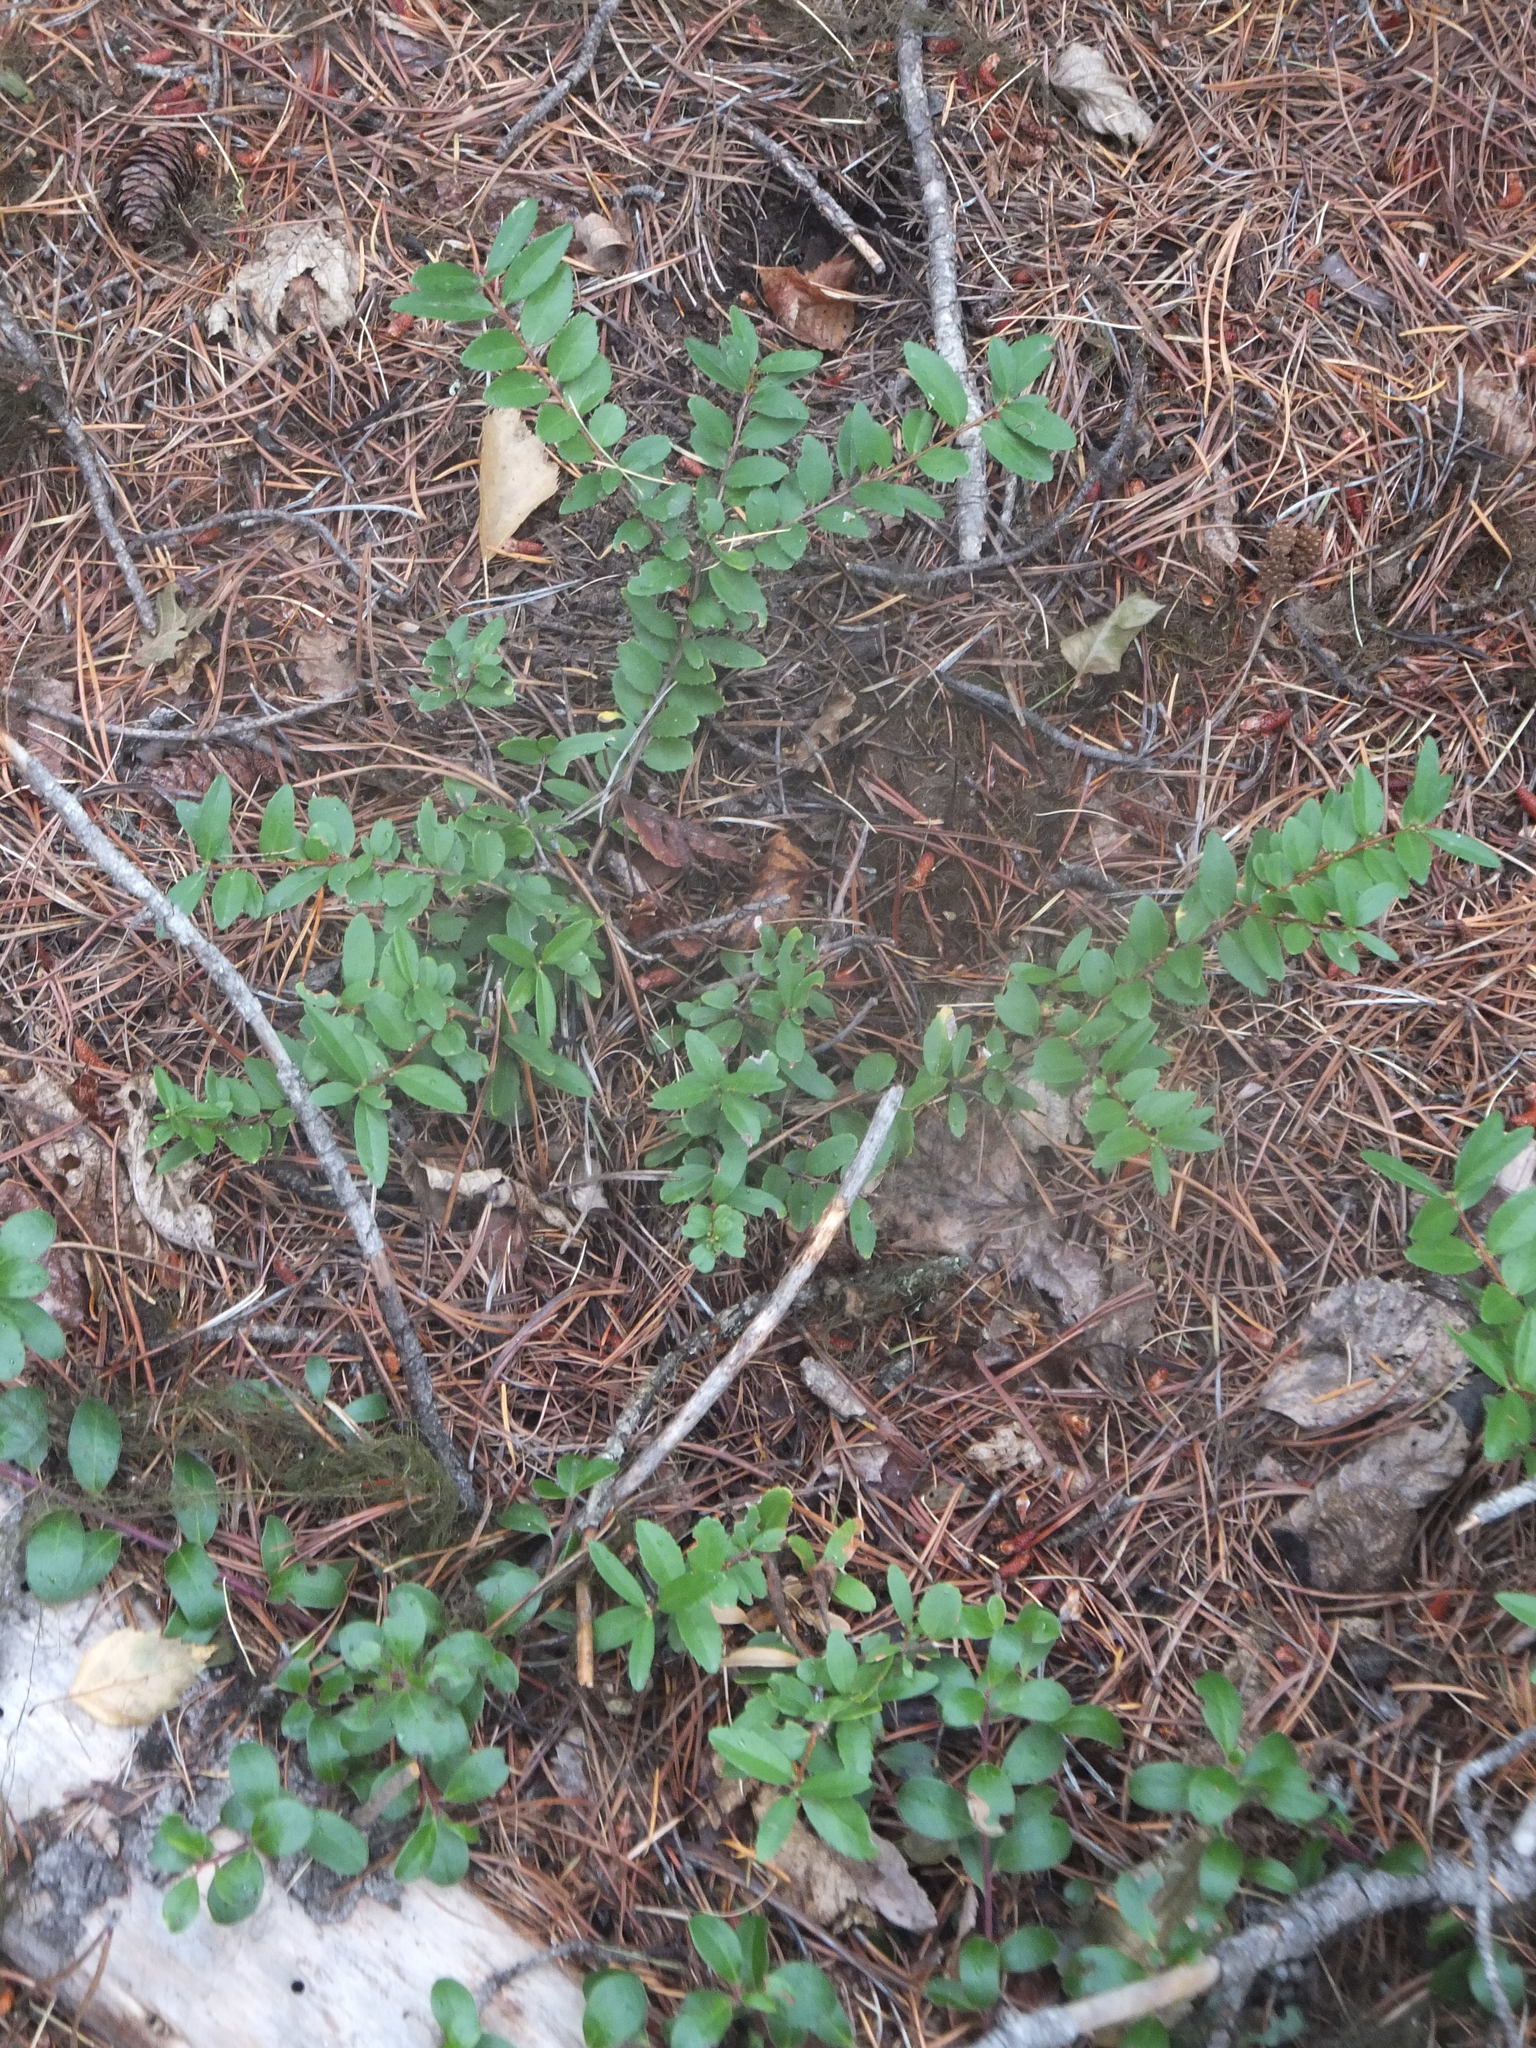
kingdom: Plantae
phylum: Tracheophyta
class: Magnoliopsida
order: Celastrales
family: Celastraceae
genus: Paxistima
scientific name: Paxistima myrsinites
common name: Mountain-lover
